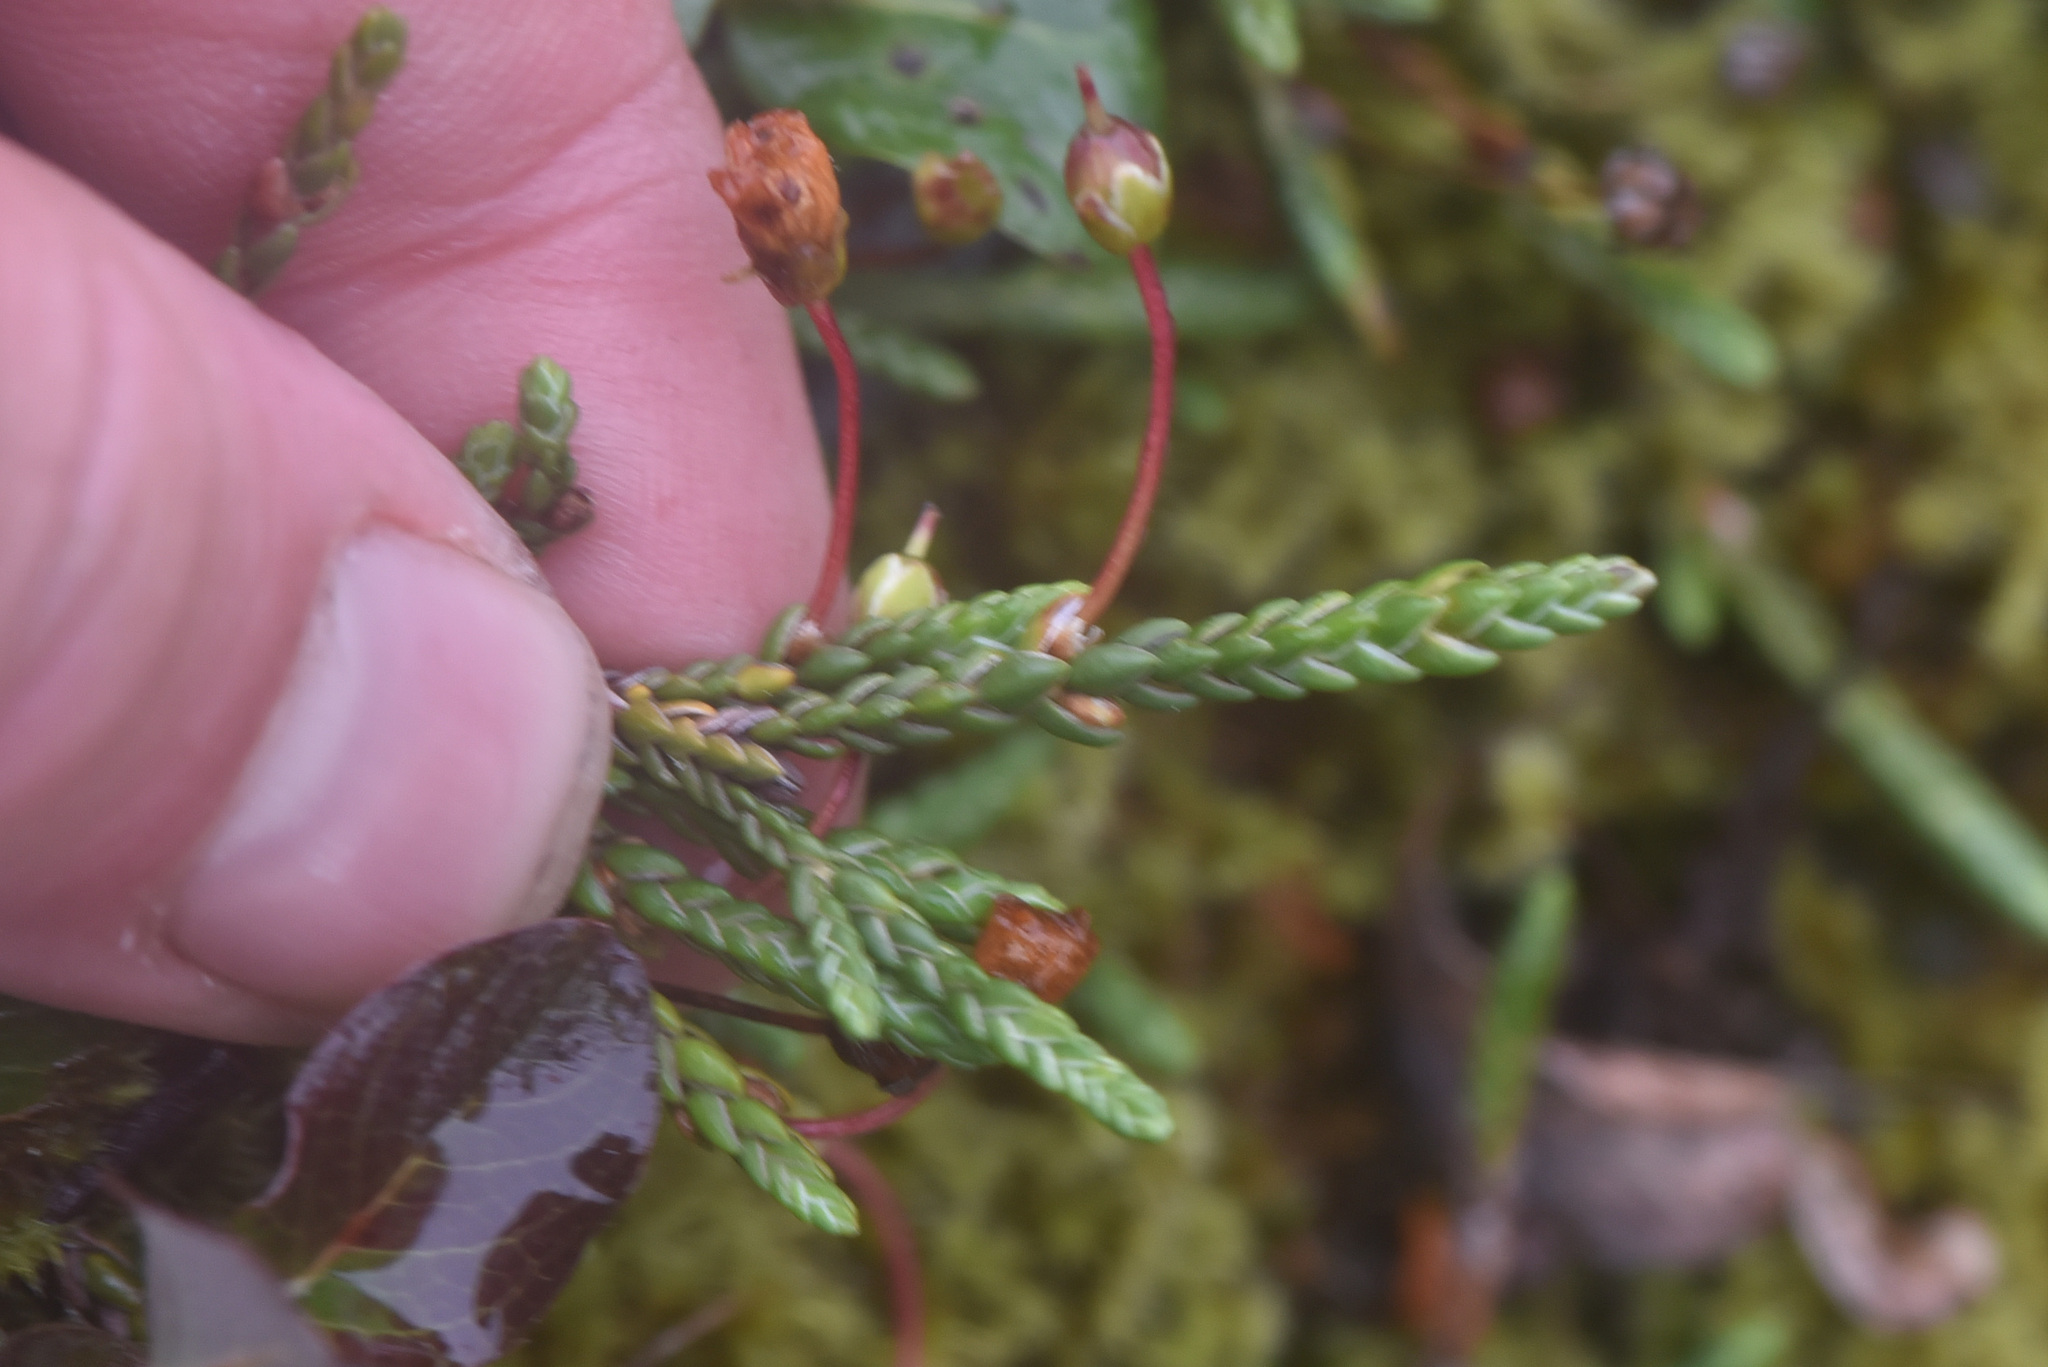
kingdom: Plantae
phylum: Tracheophyta
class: Magnoliopsida
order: Ericales
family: Ericaceae
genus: Cassiope
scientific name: Cassiope lycopodioides
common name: Clubmoss mountain heather
